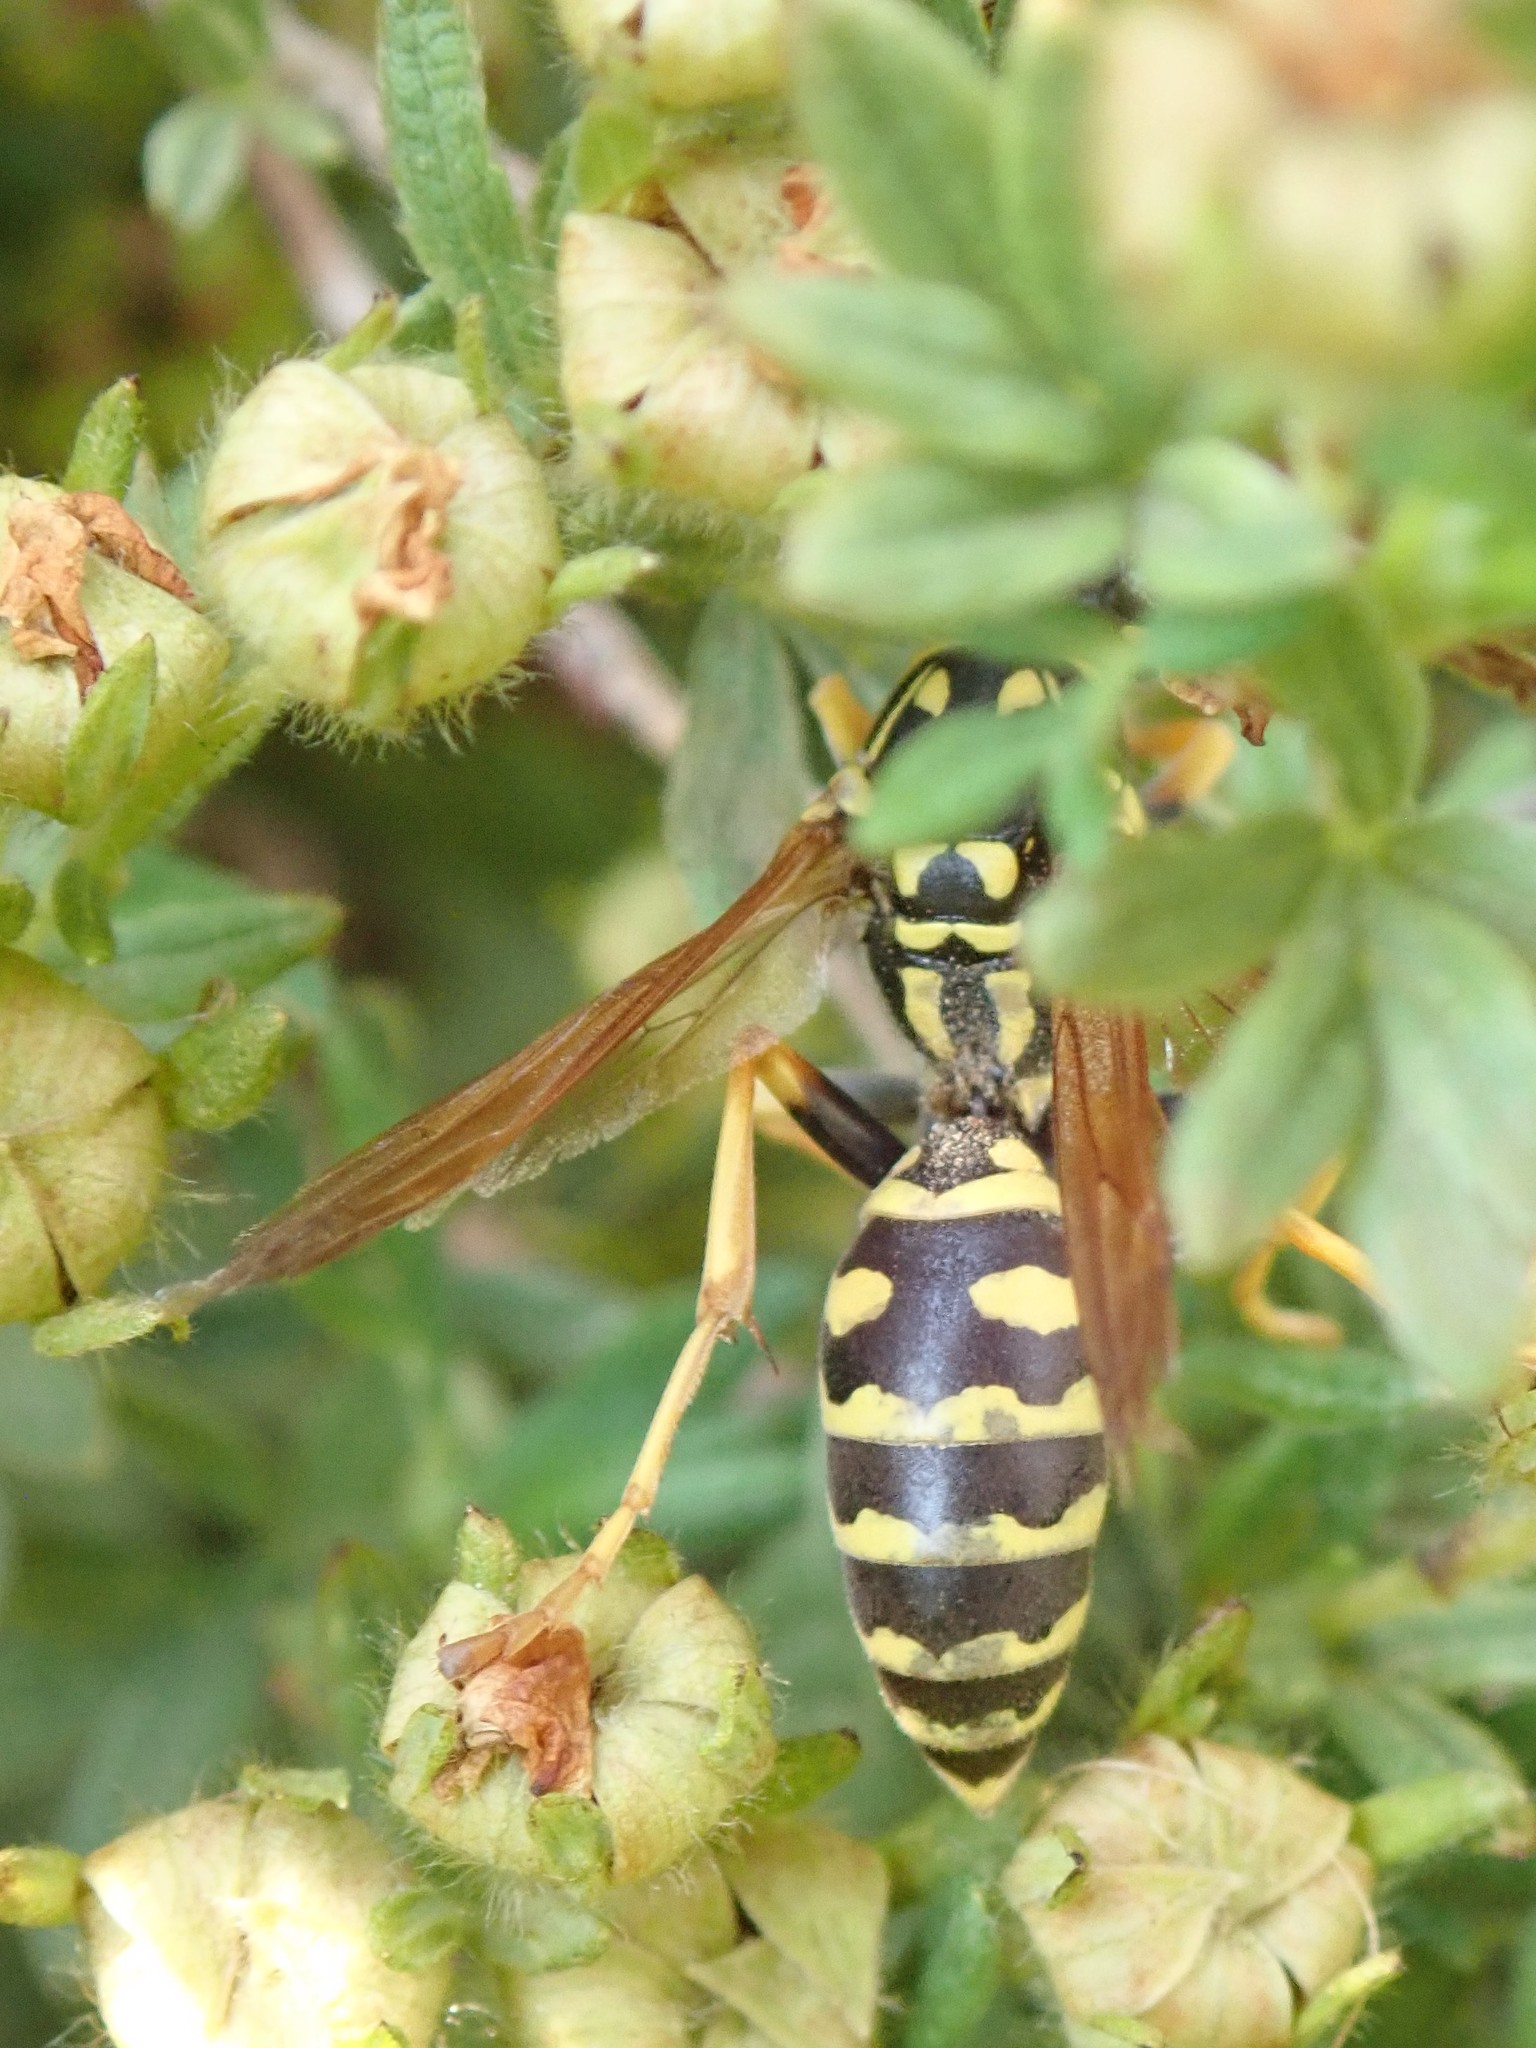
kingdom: Animalia
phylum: Arthropoda
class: Insecta
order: Hymenoptera
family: Eumenidae
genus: Polistes
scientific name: Polistes dominula
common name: Paper wasp
